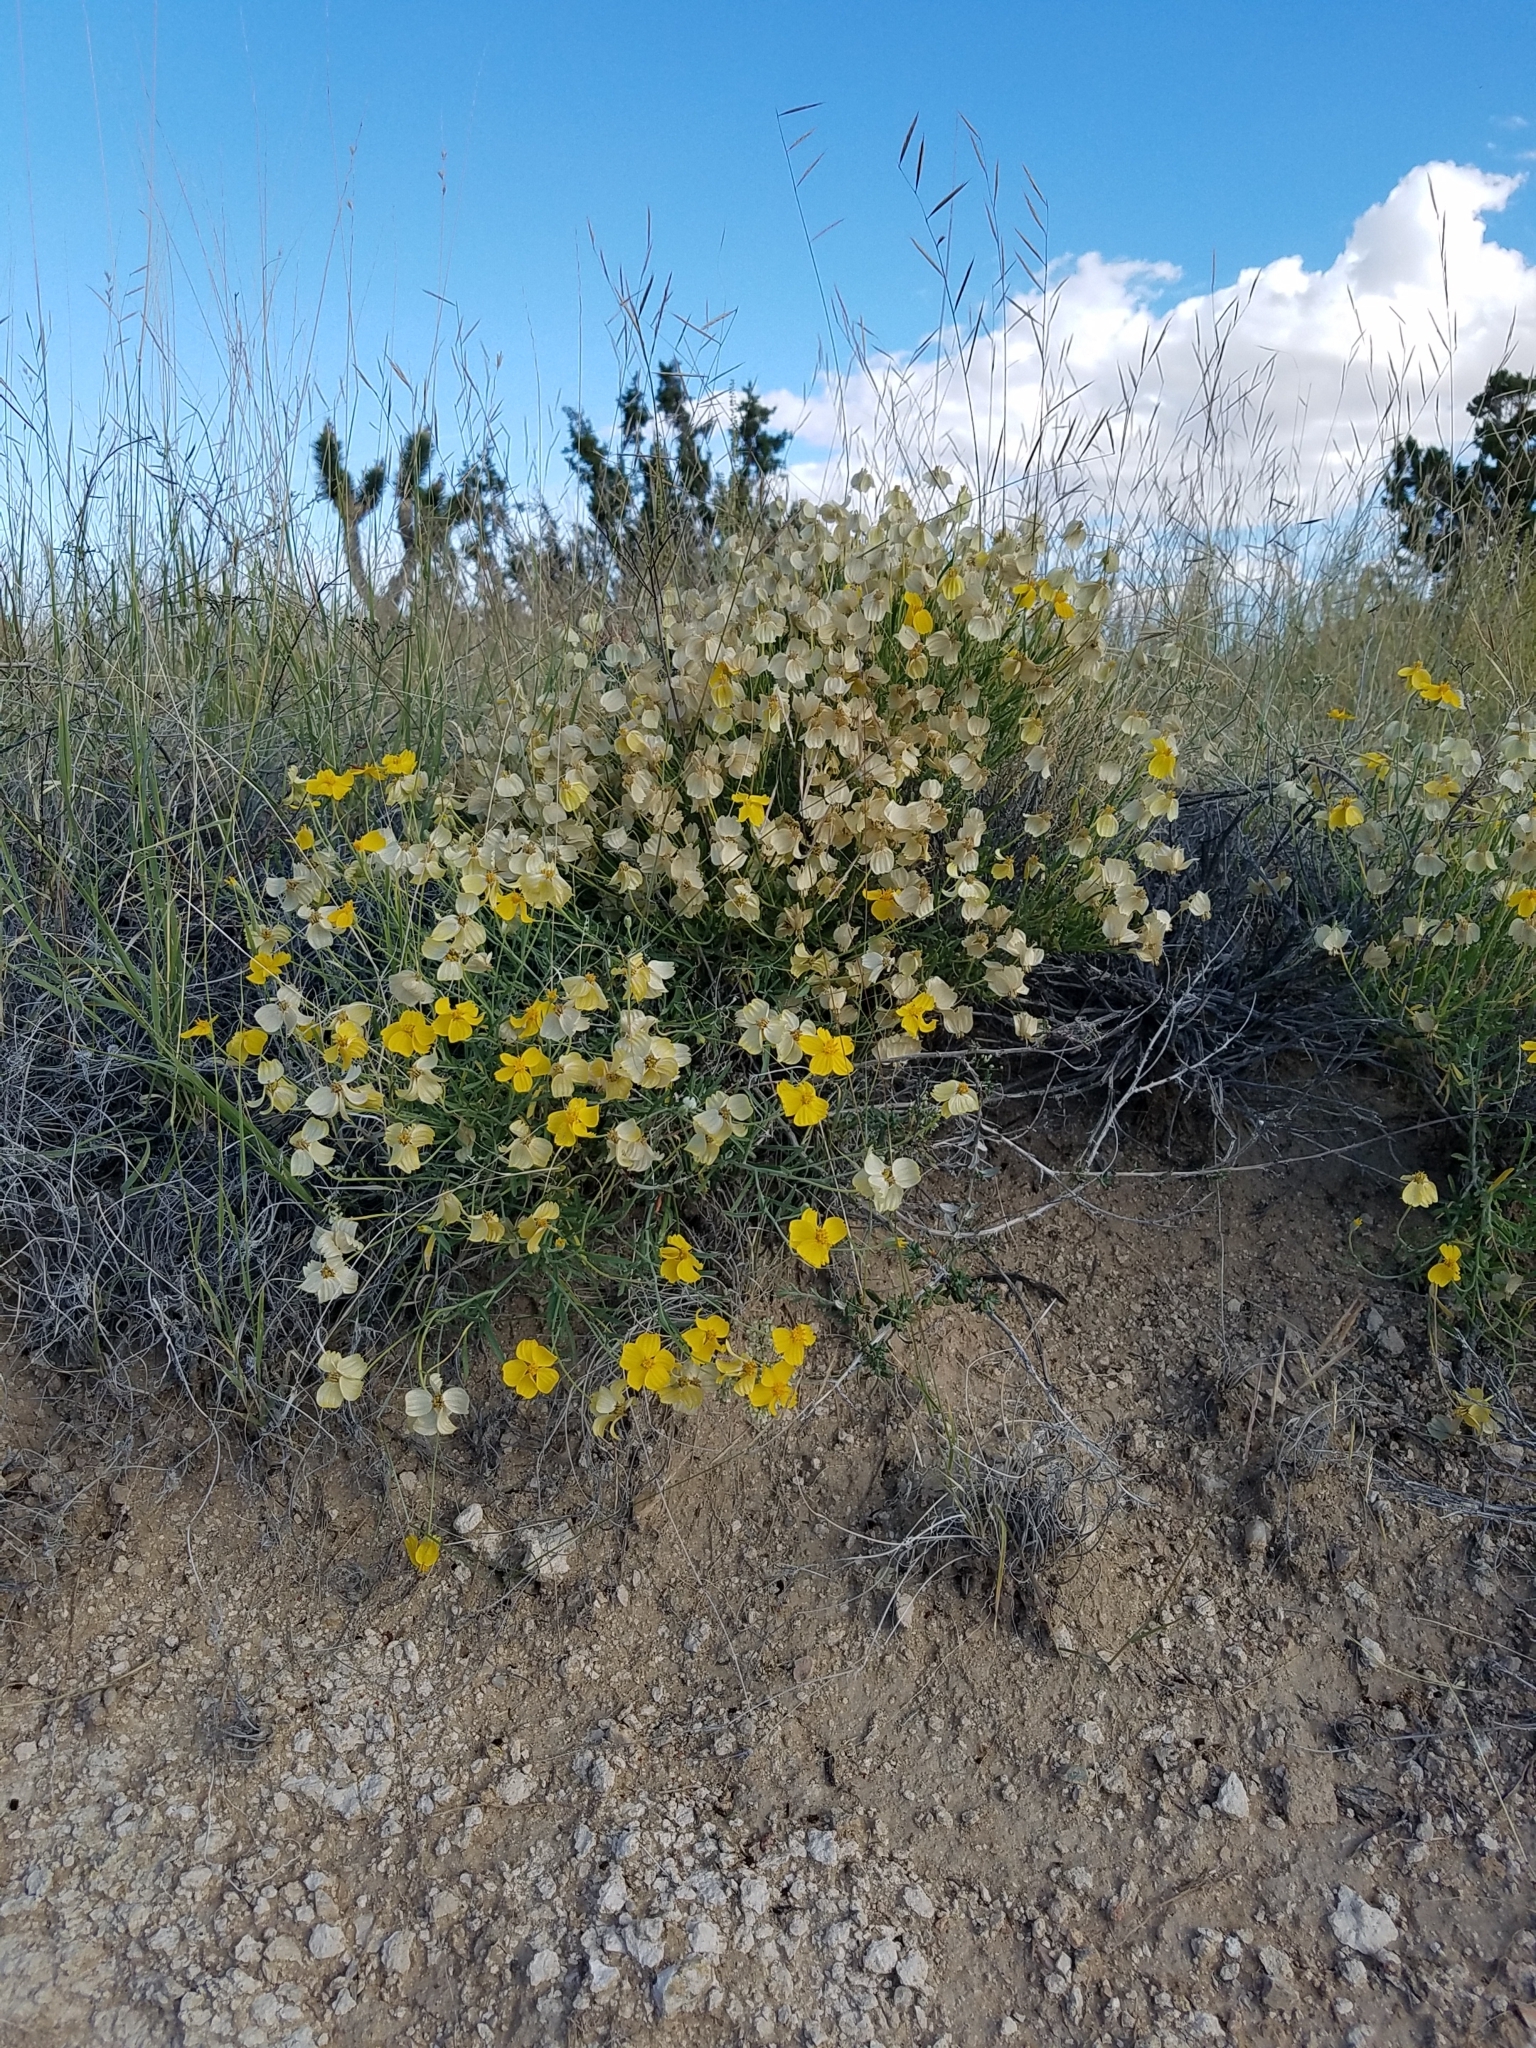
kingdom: Plantae
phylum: Tracheophyta
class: Magnoliopsida
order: Asterales
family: Asteraceae
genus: Psilostrophe
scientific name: Psilostrophe cooperi
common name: White-stem paper-flower
